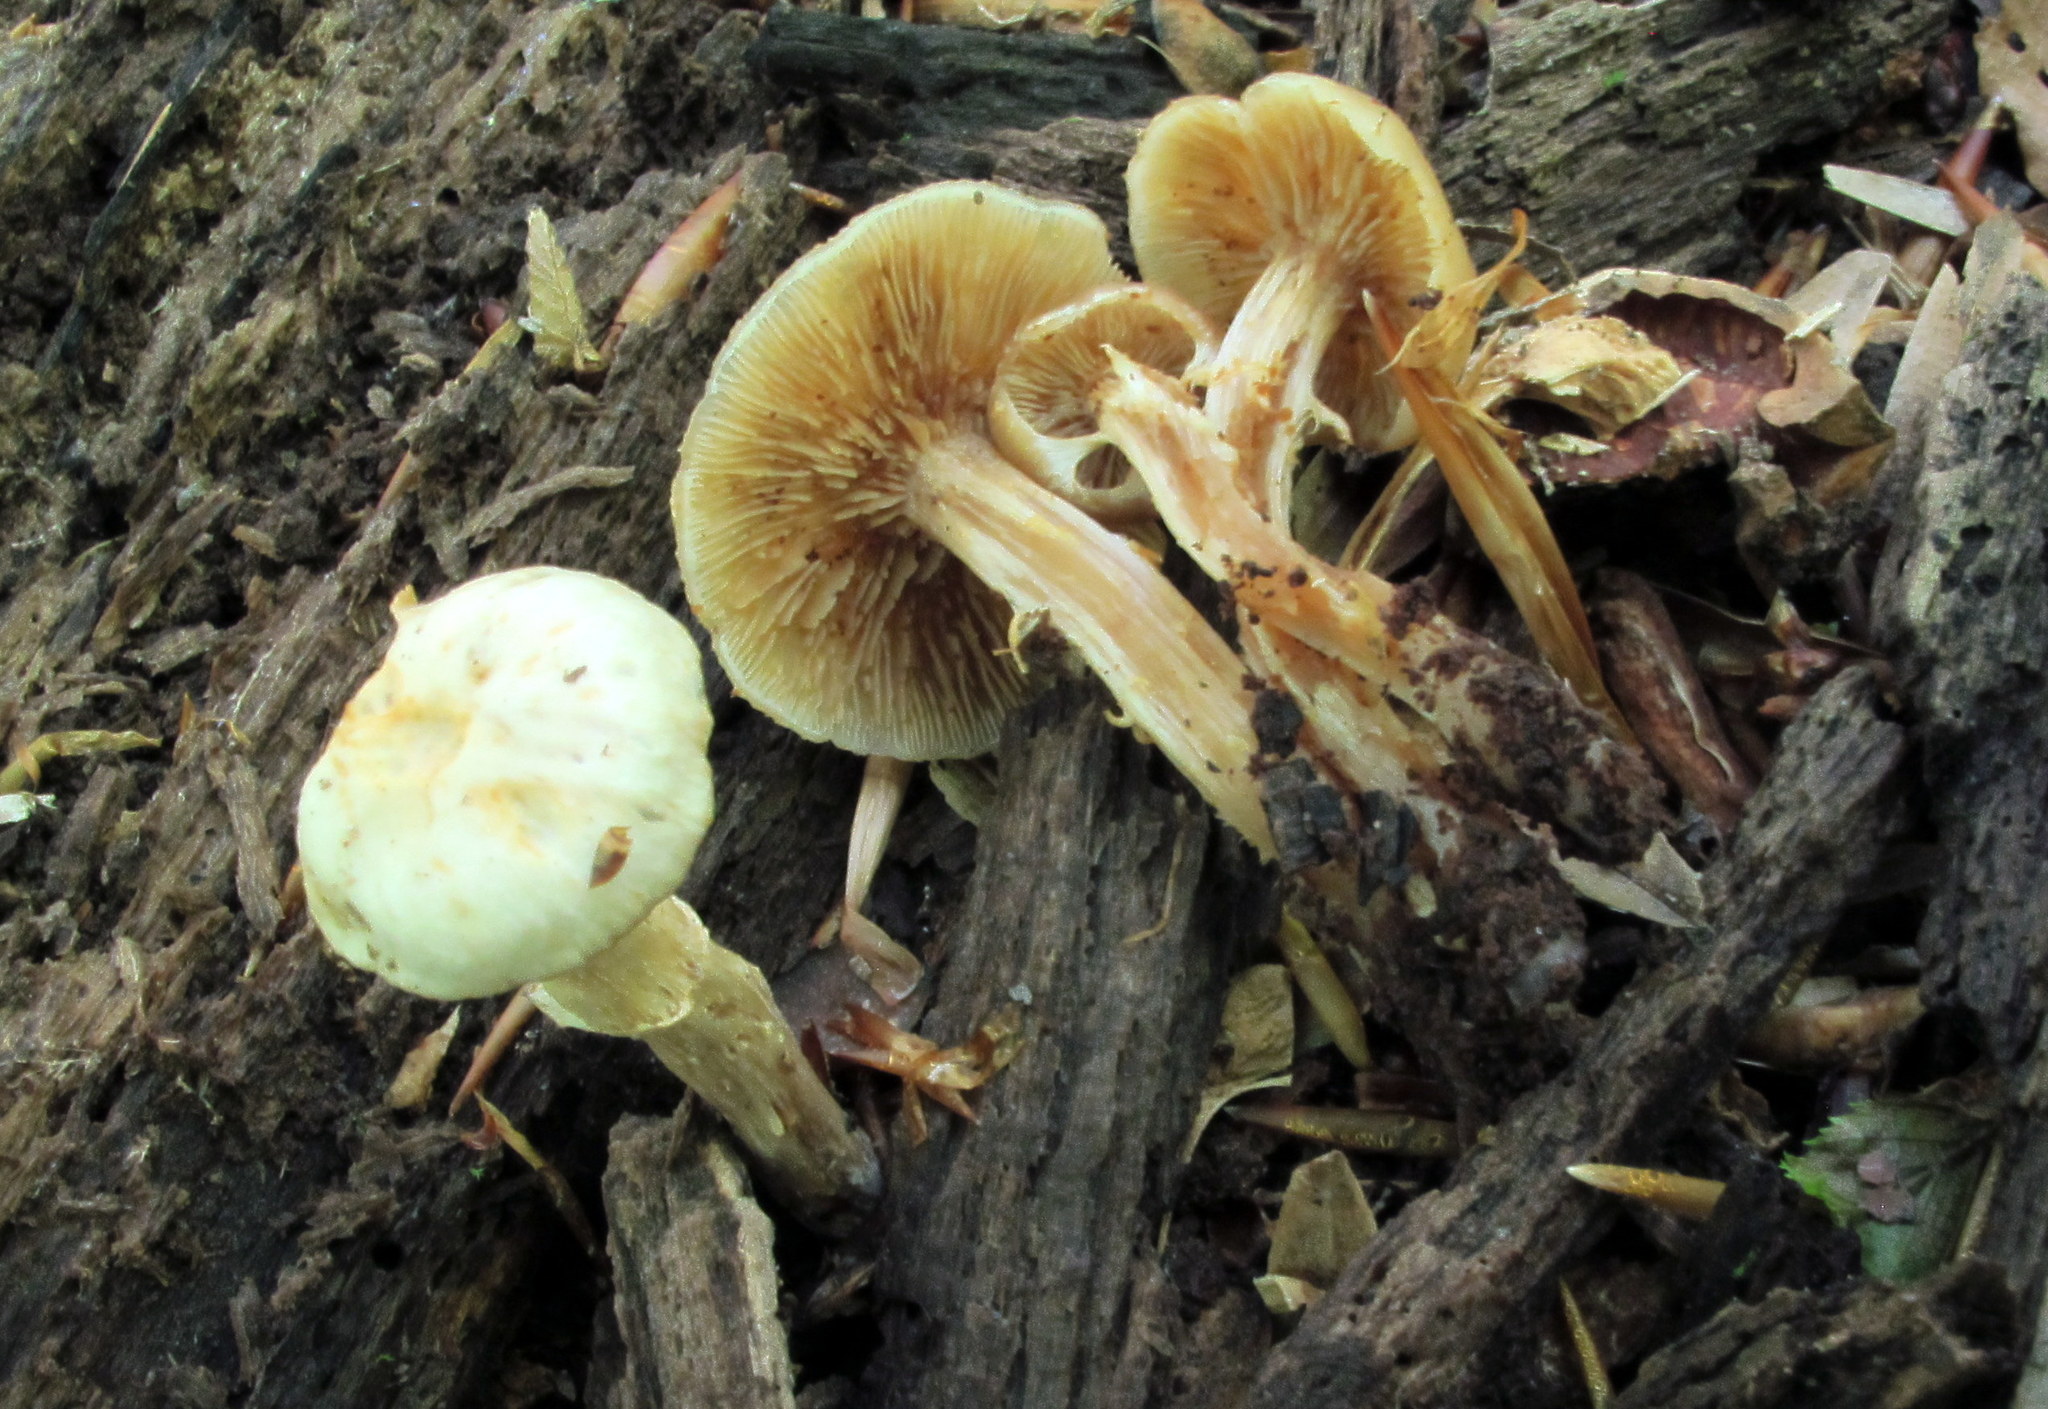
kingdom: Fungi
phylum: Basidiomycota
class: Agaricomycetes
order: Agaricales
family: Strophariaceae
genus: Kuehneromyces
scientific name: Kuehneromyces marginellus
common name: Sheathed woodtuft
